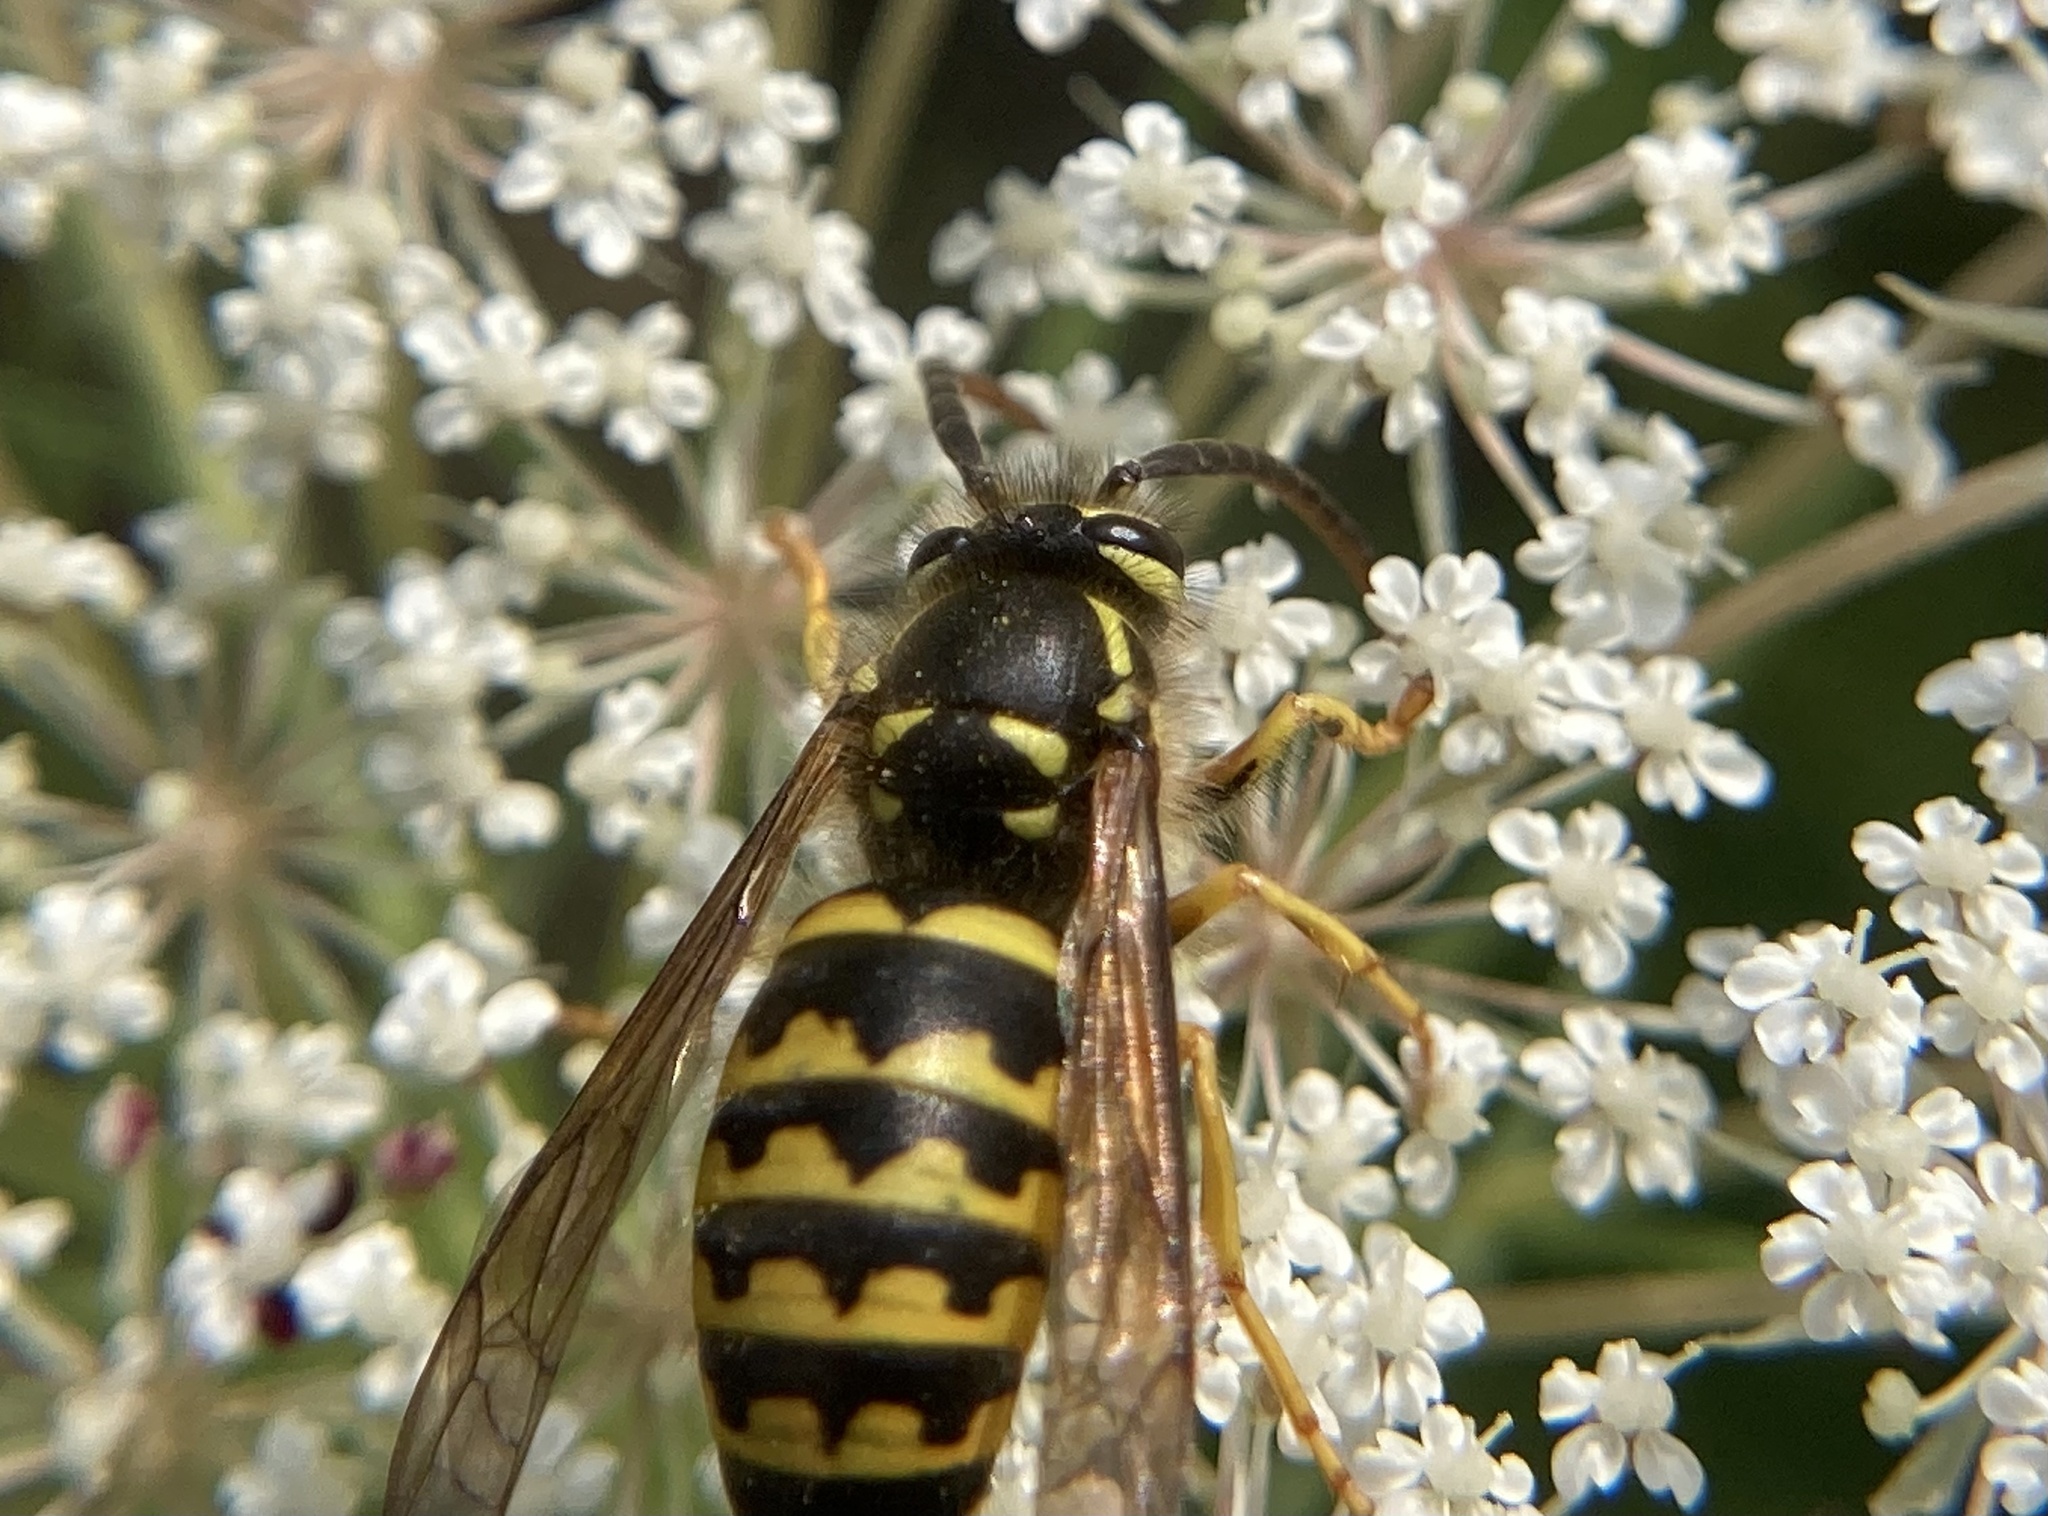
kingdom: Animalia
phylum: Arthropoda
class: Insecta
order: Hymenoptera
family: Vespidae
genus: Dolichovespula
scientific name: Dolichovespula arenaria
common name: Aerial yellowjacket
